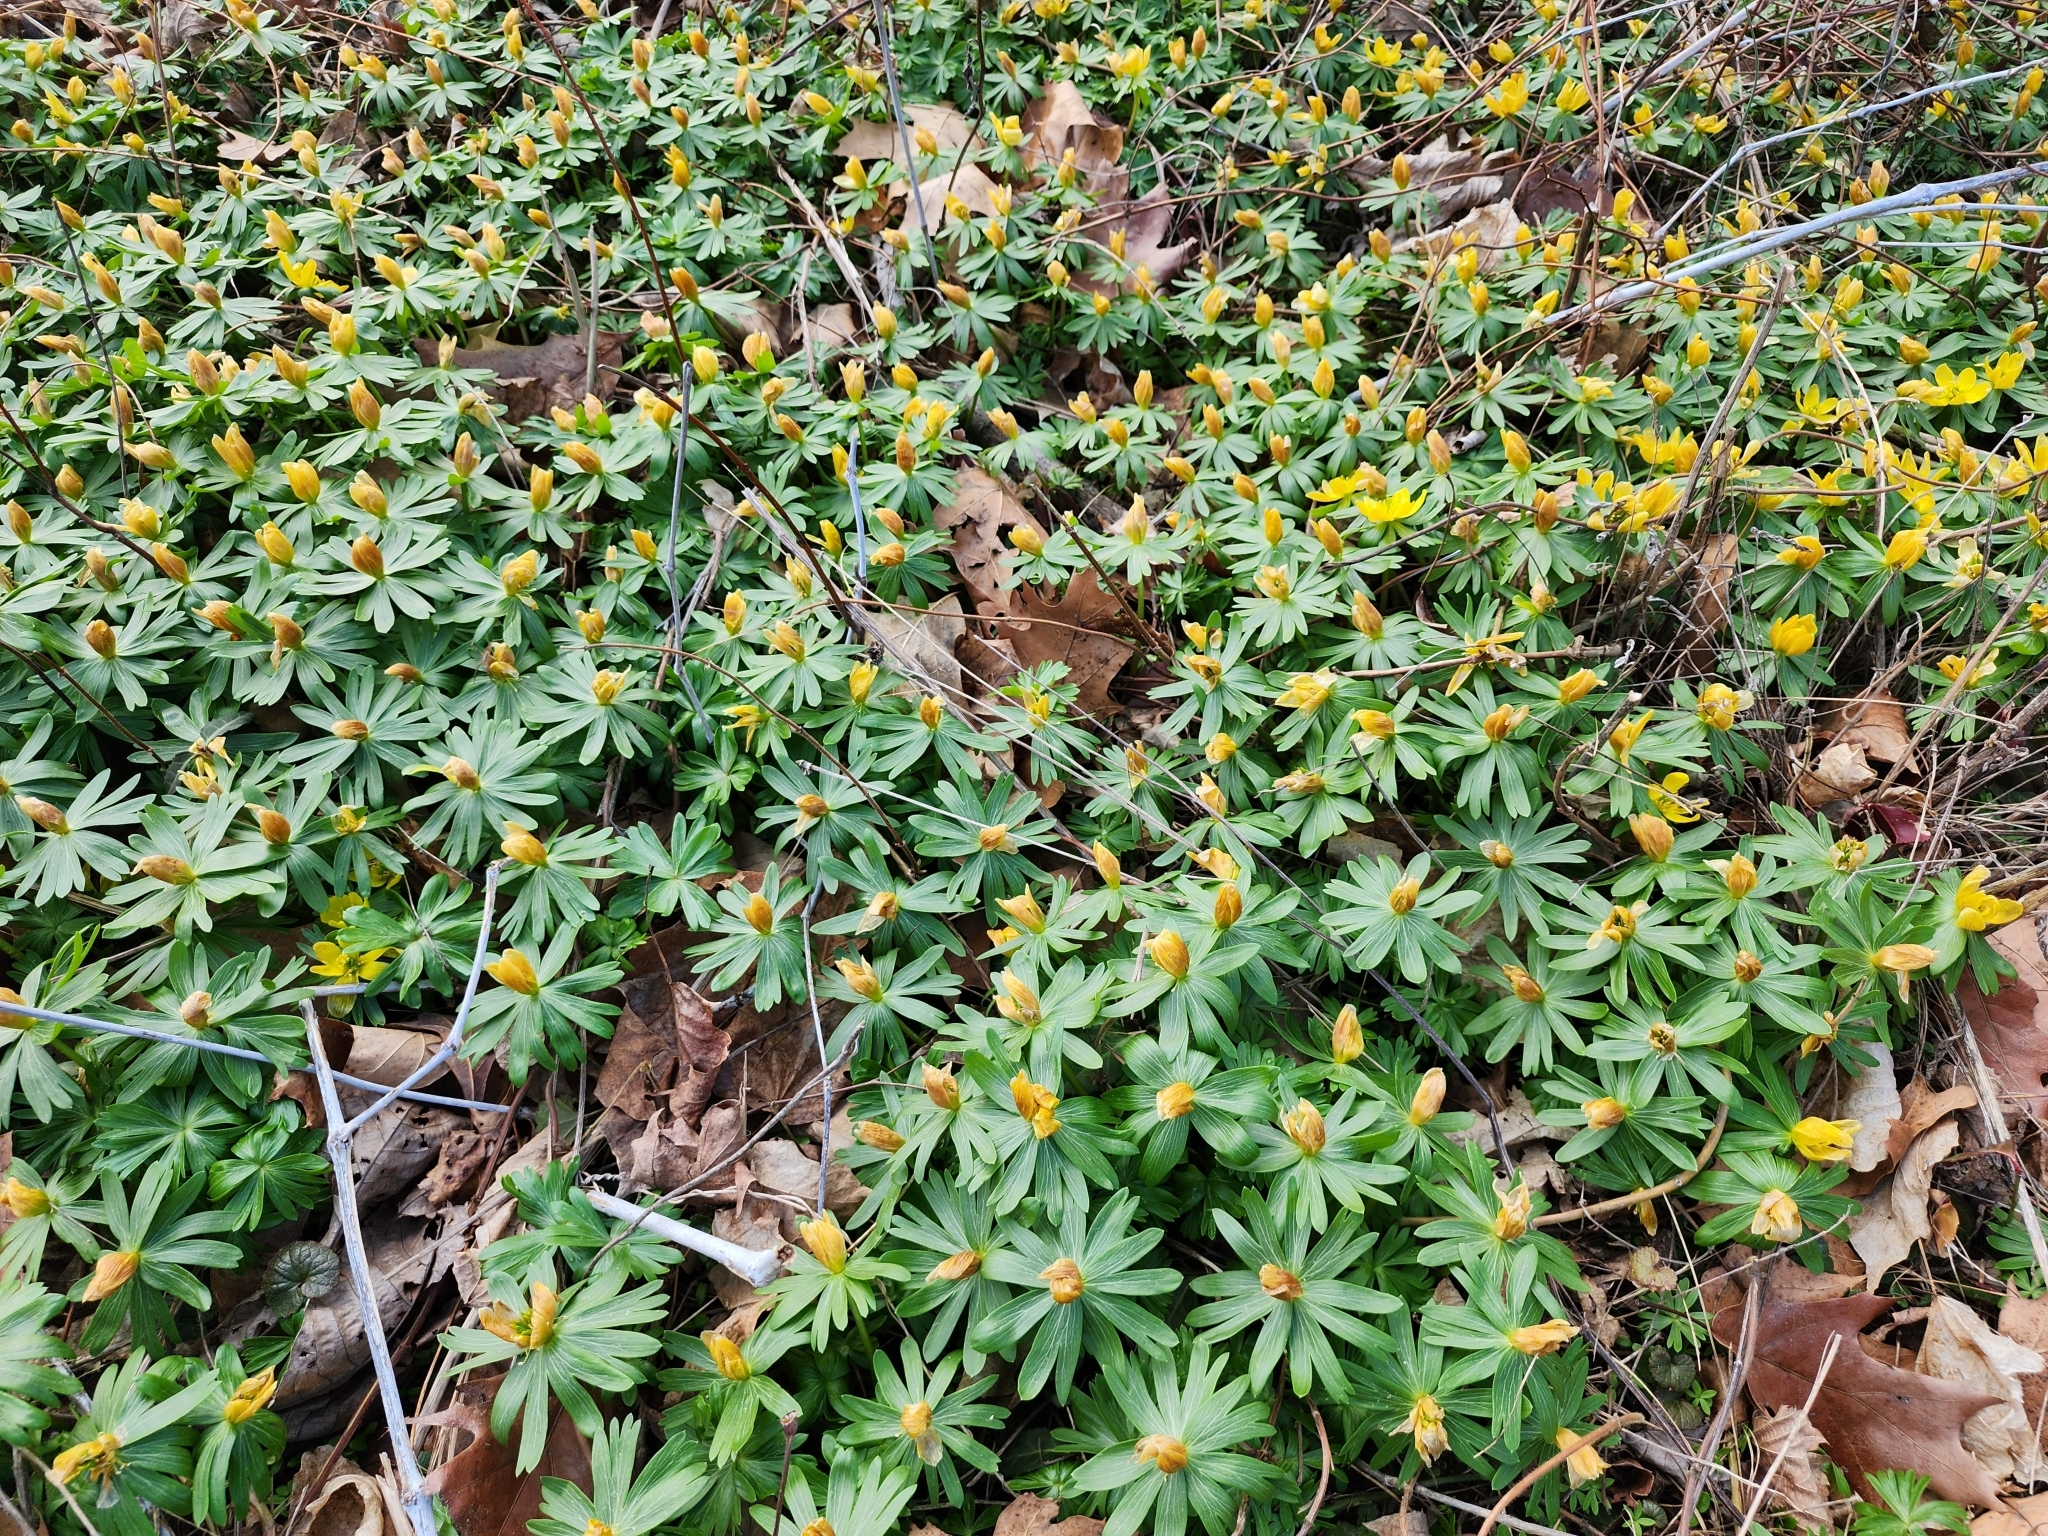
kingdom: Plantae
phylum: Tracheophyta
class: Magnoliopsida
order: Ranunculales
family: Ranunculaceae
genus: Eranthis
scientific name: Eranthis hyemalis
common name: Winter aconite
